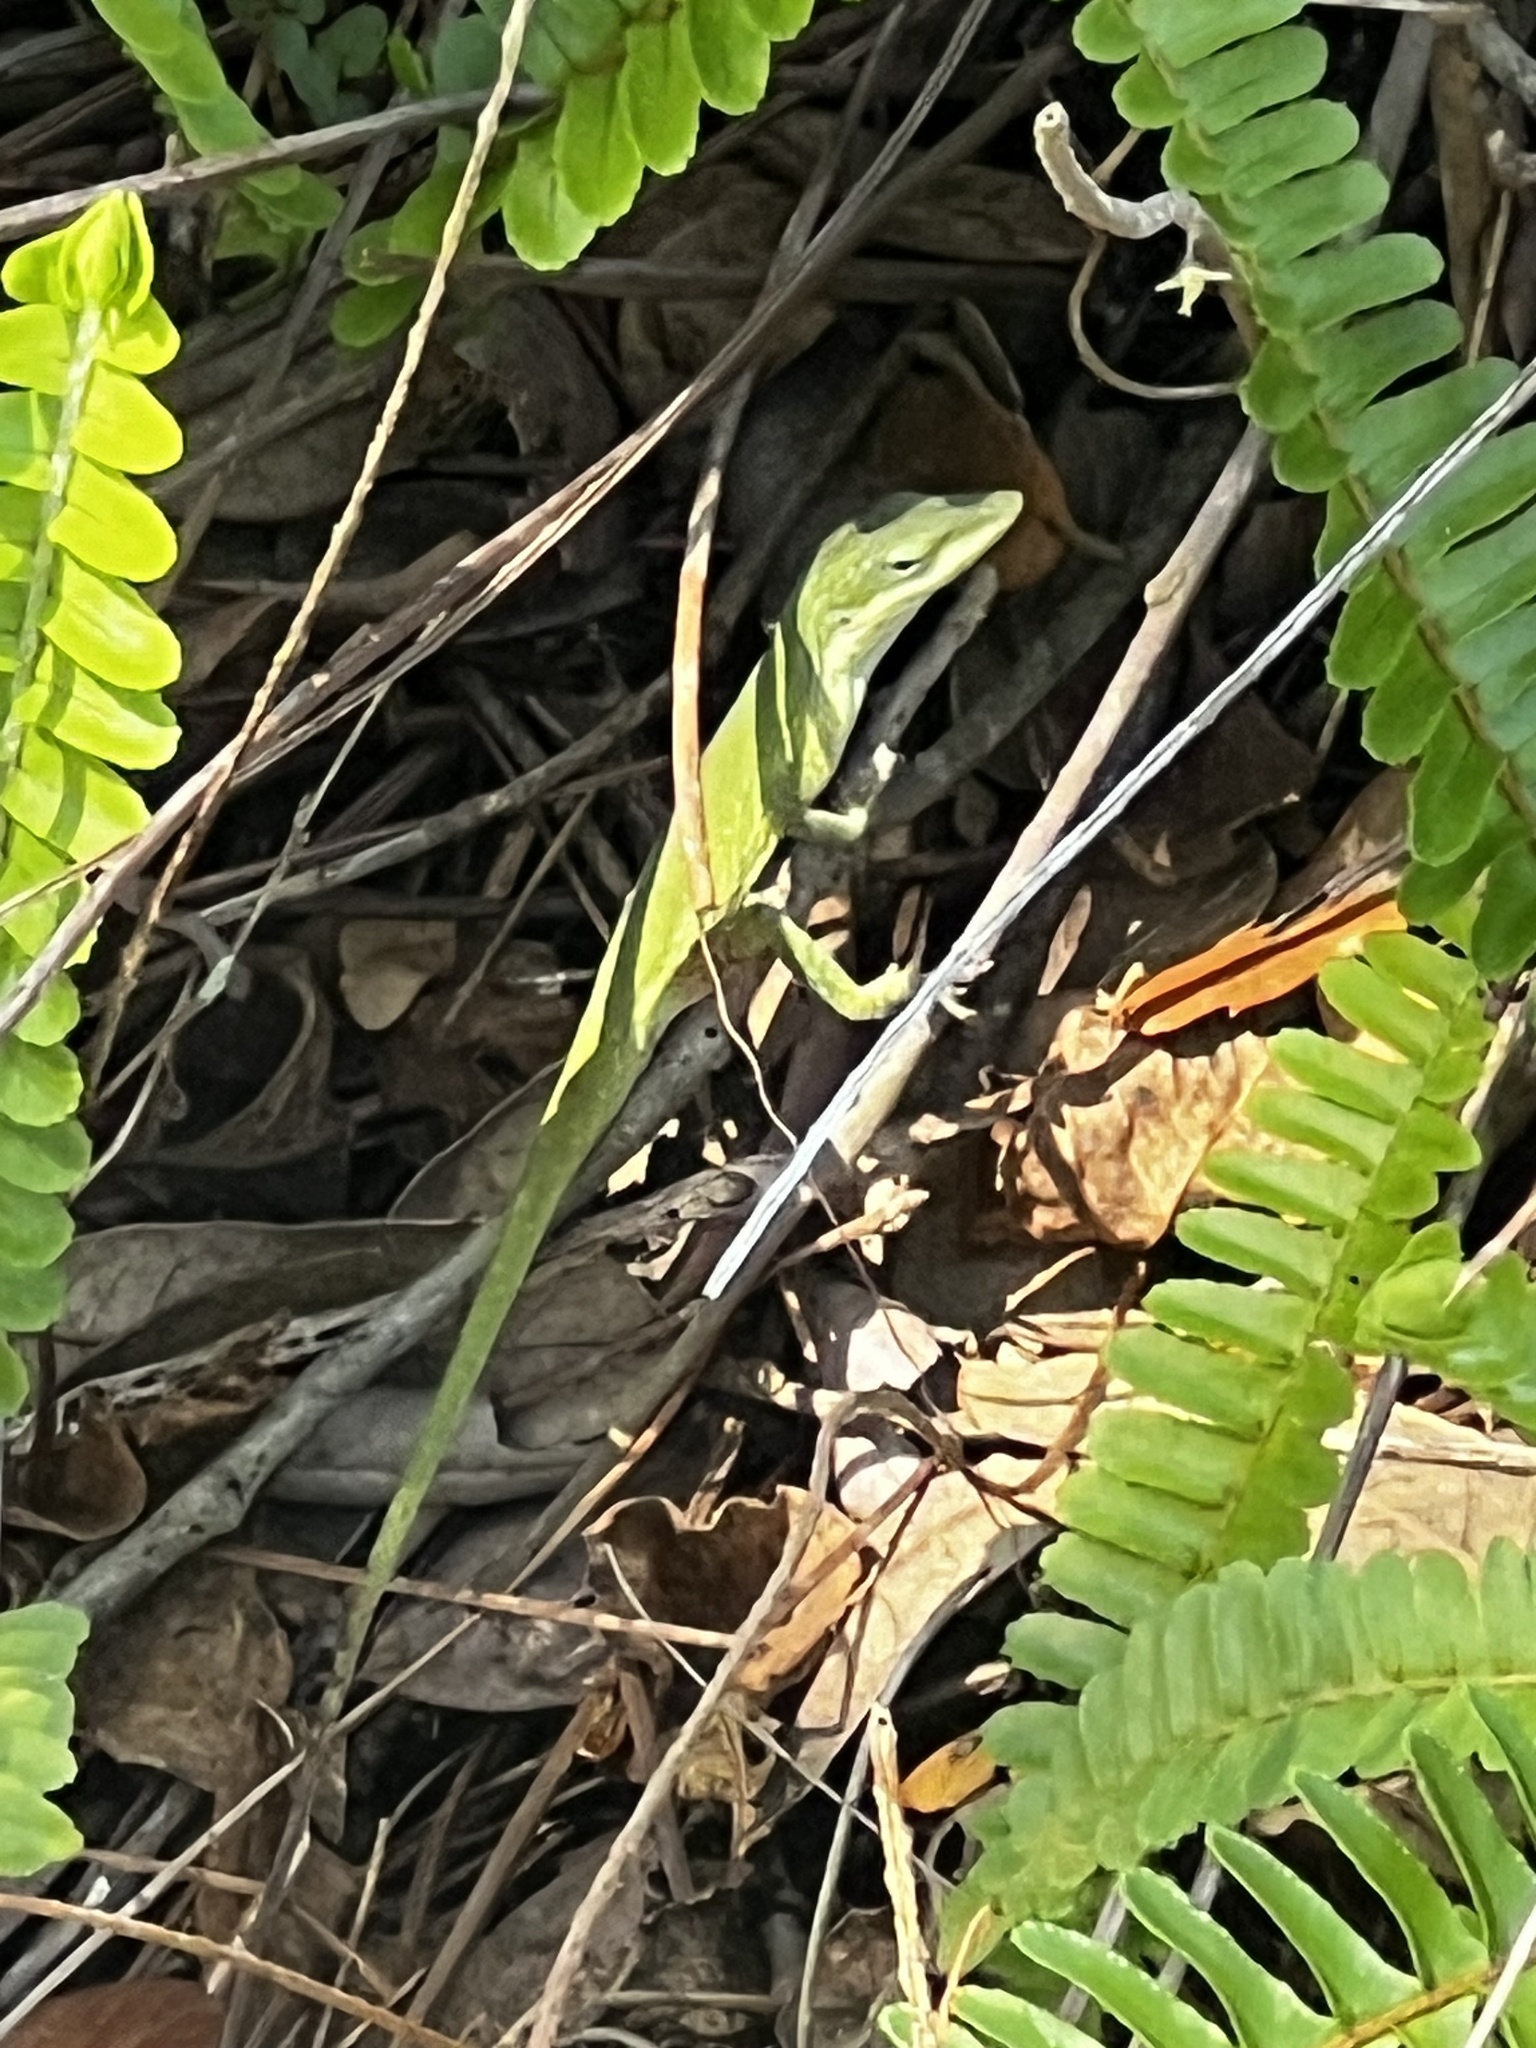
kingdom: Animalia
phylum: Chordata
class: Squamata
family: Dactyloidae
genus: Anolis
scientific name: Anolis carolinensis
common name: Green anole
